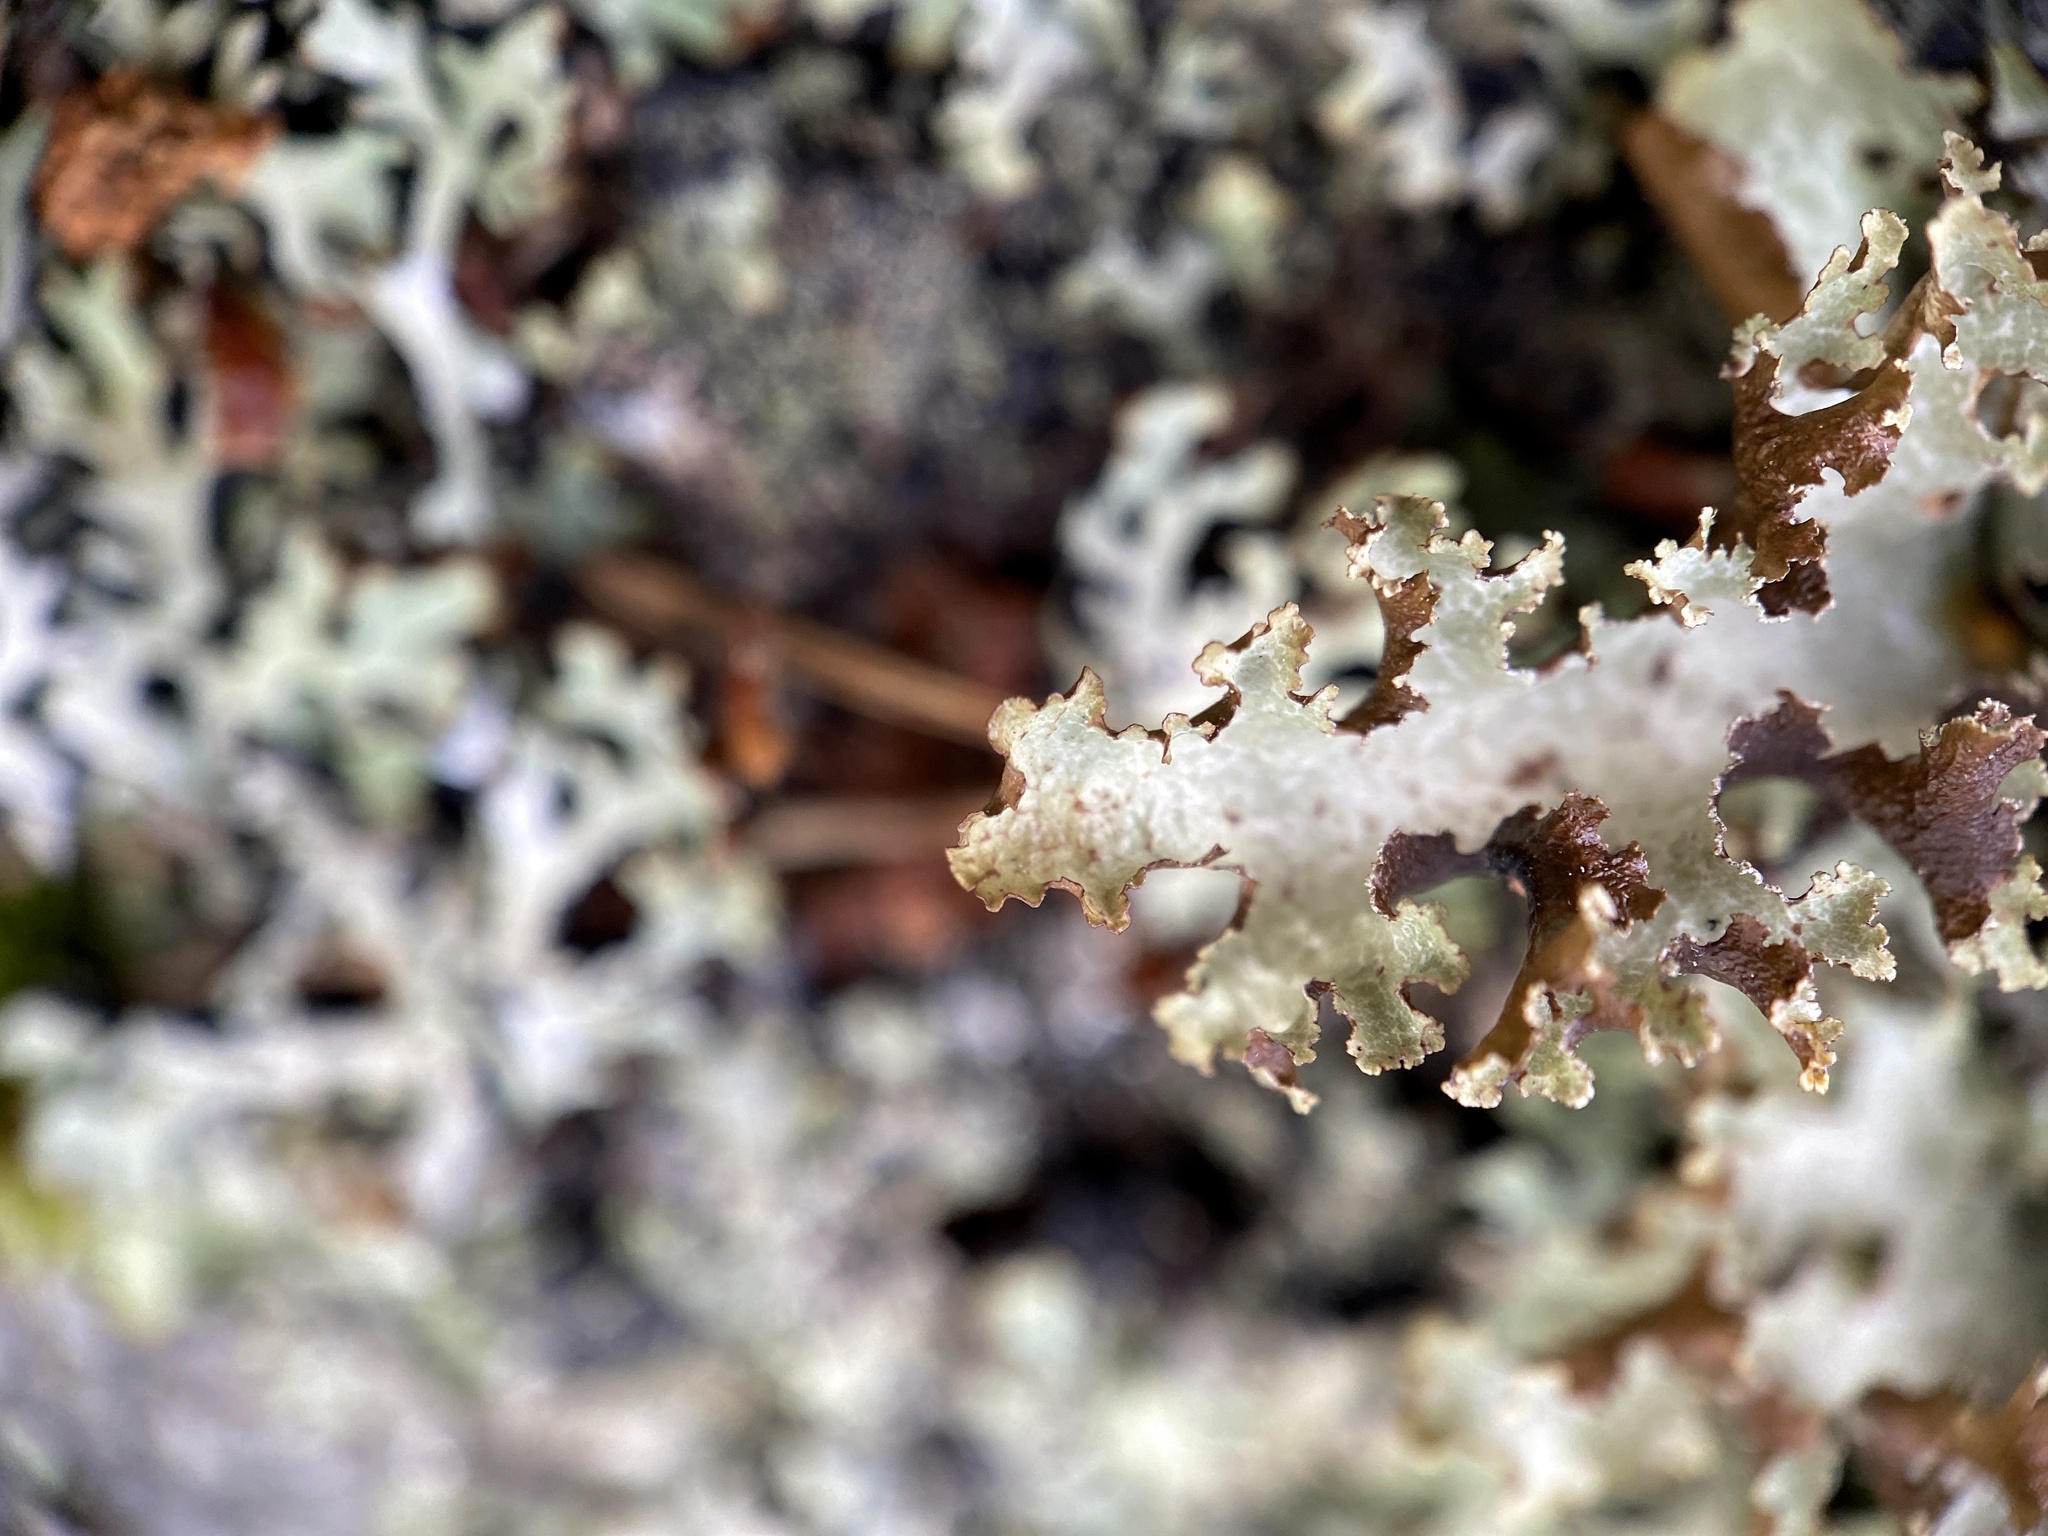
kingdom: Fungi
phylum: Ascomycota
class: Lecanoromycetes
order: Lecanorales
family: Parmeliaceae
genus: Platismatia
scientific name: Platismatia glauca
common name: Varied rag lichen
